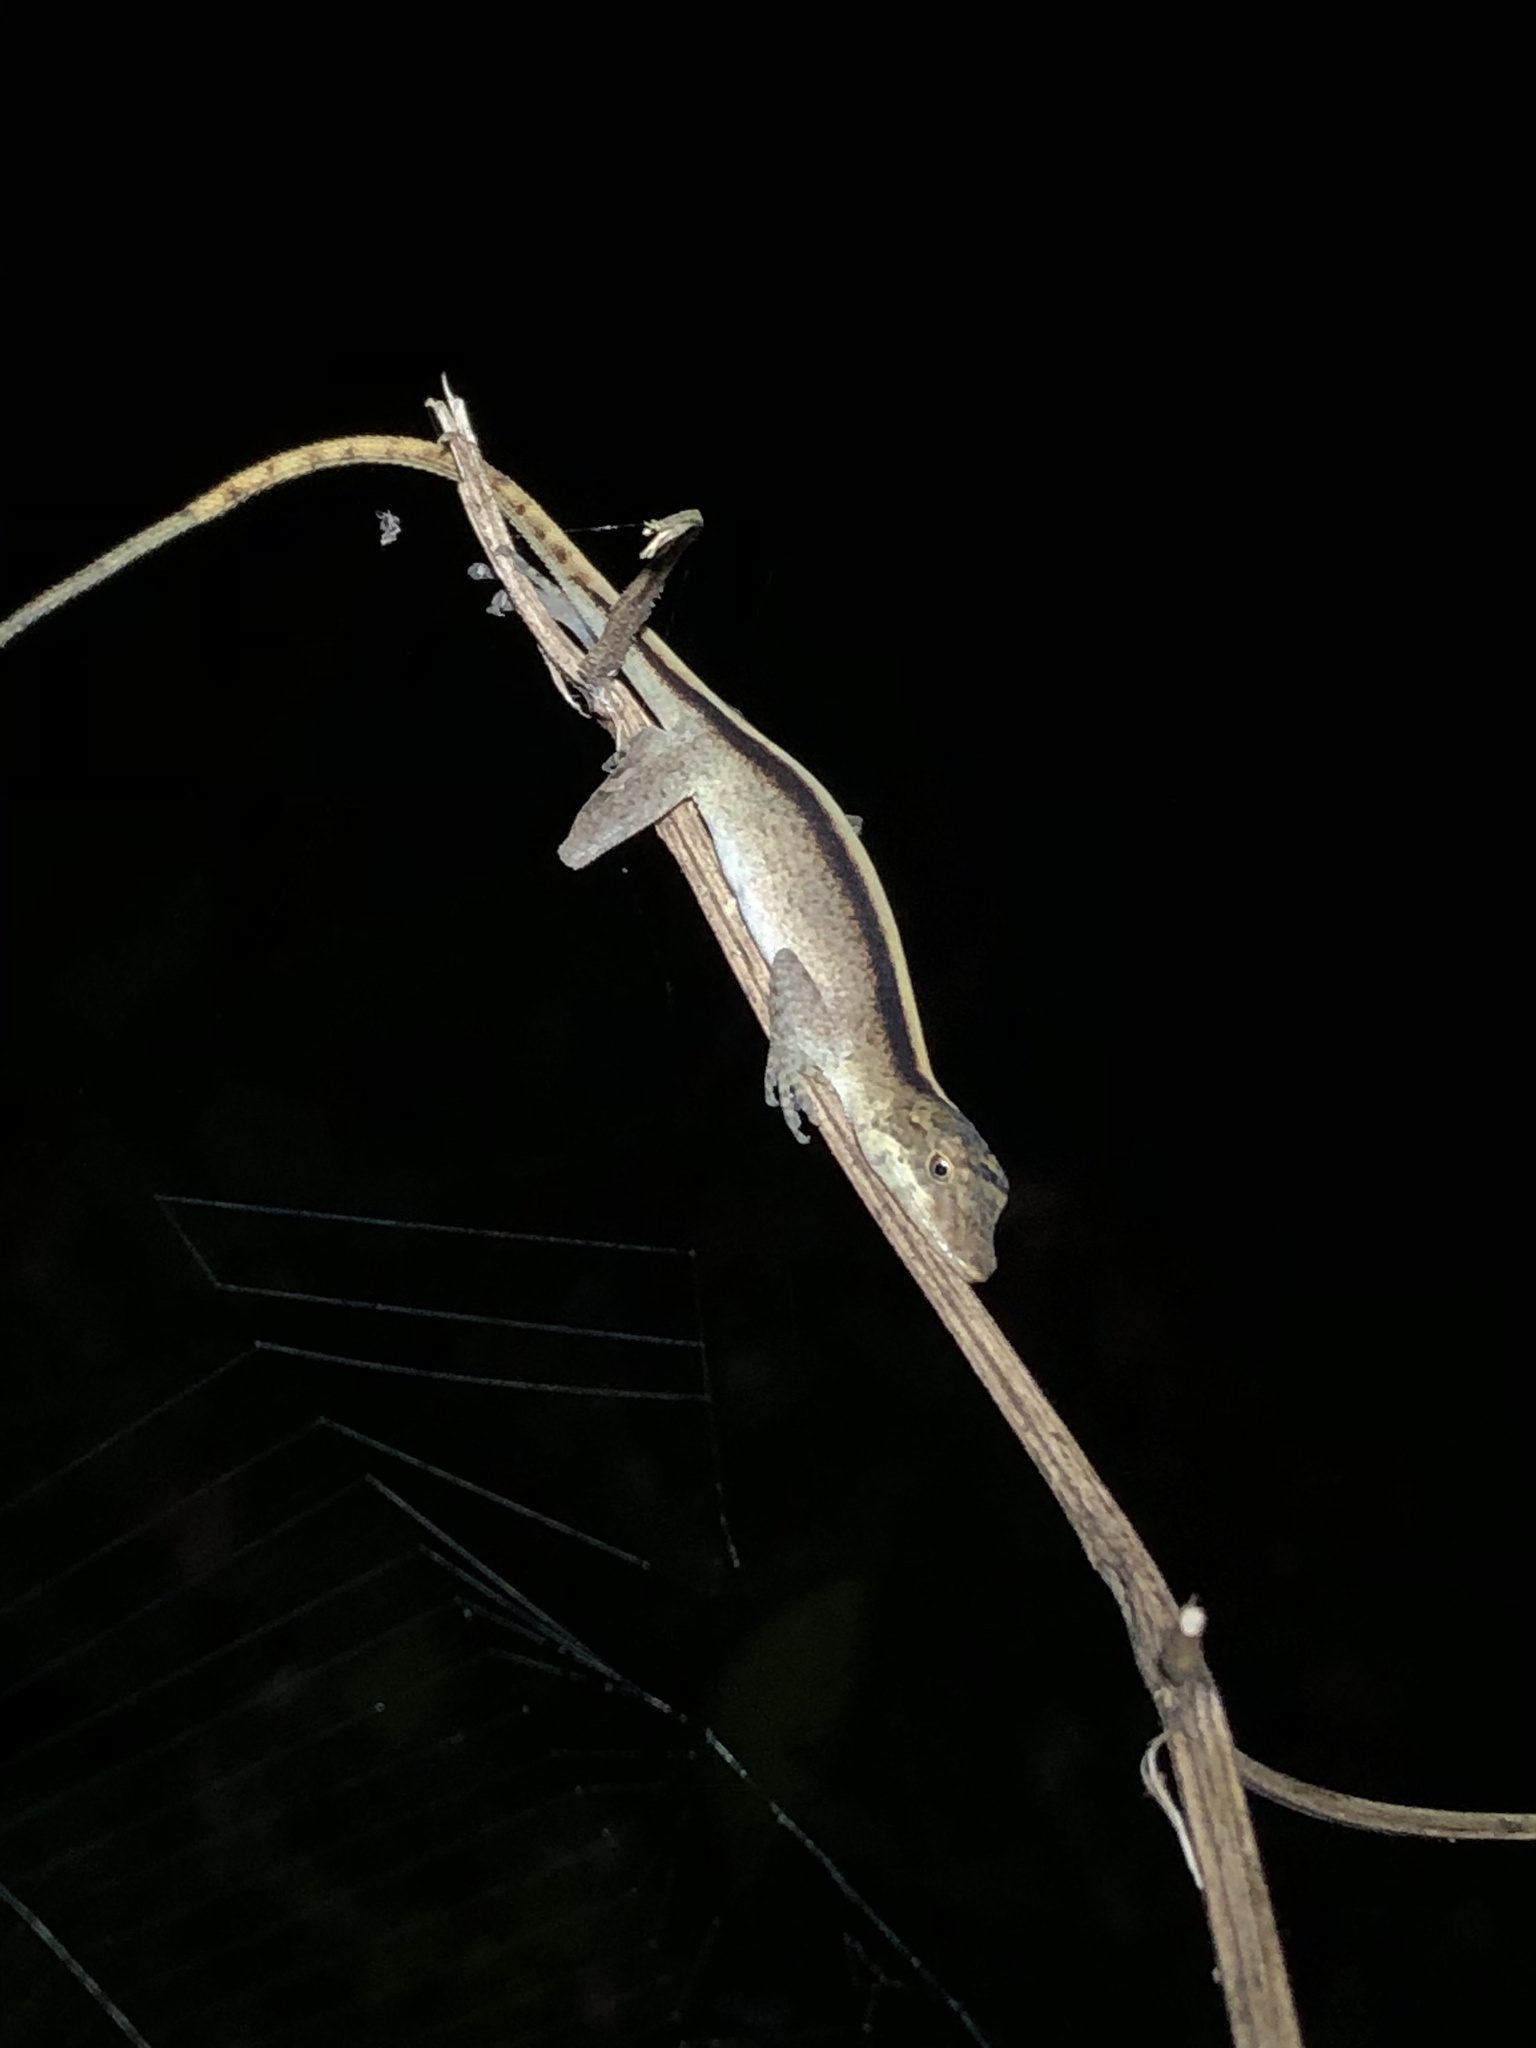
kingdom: Animalia
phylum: Chordata
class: Squamata
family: Dactyloidae
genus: Anolis
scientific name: Anolis fuscoauratus
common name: Brown-eared anole
